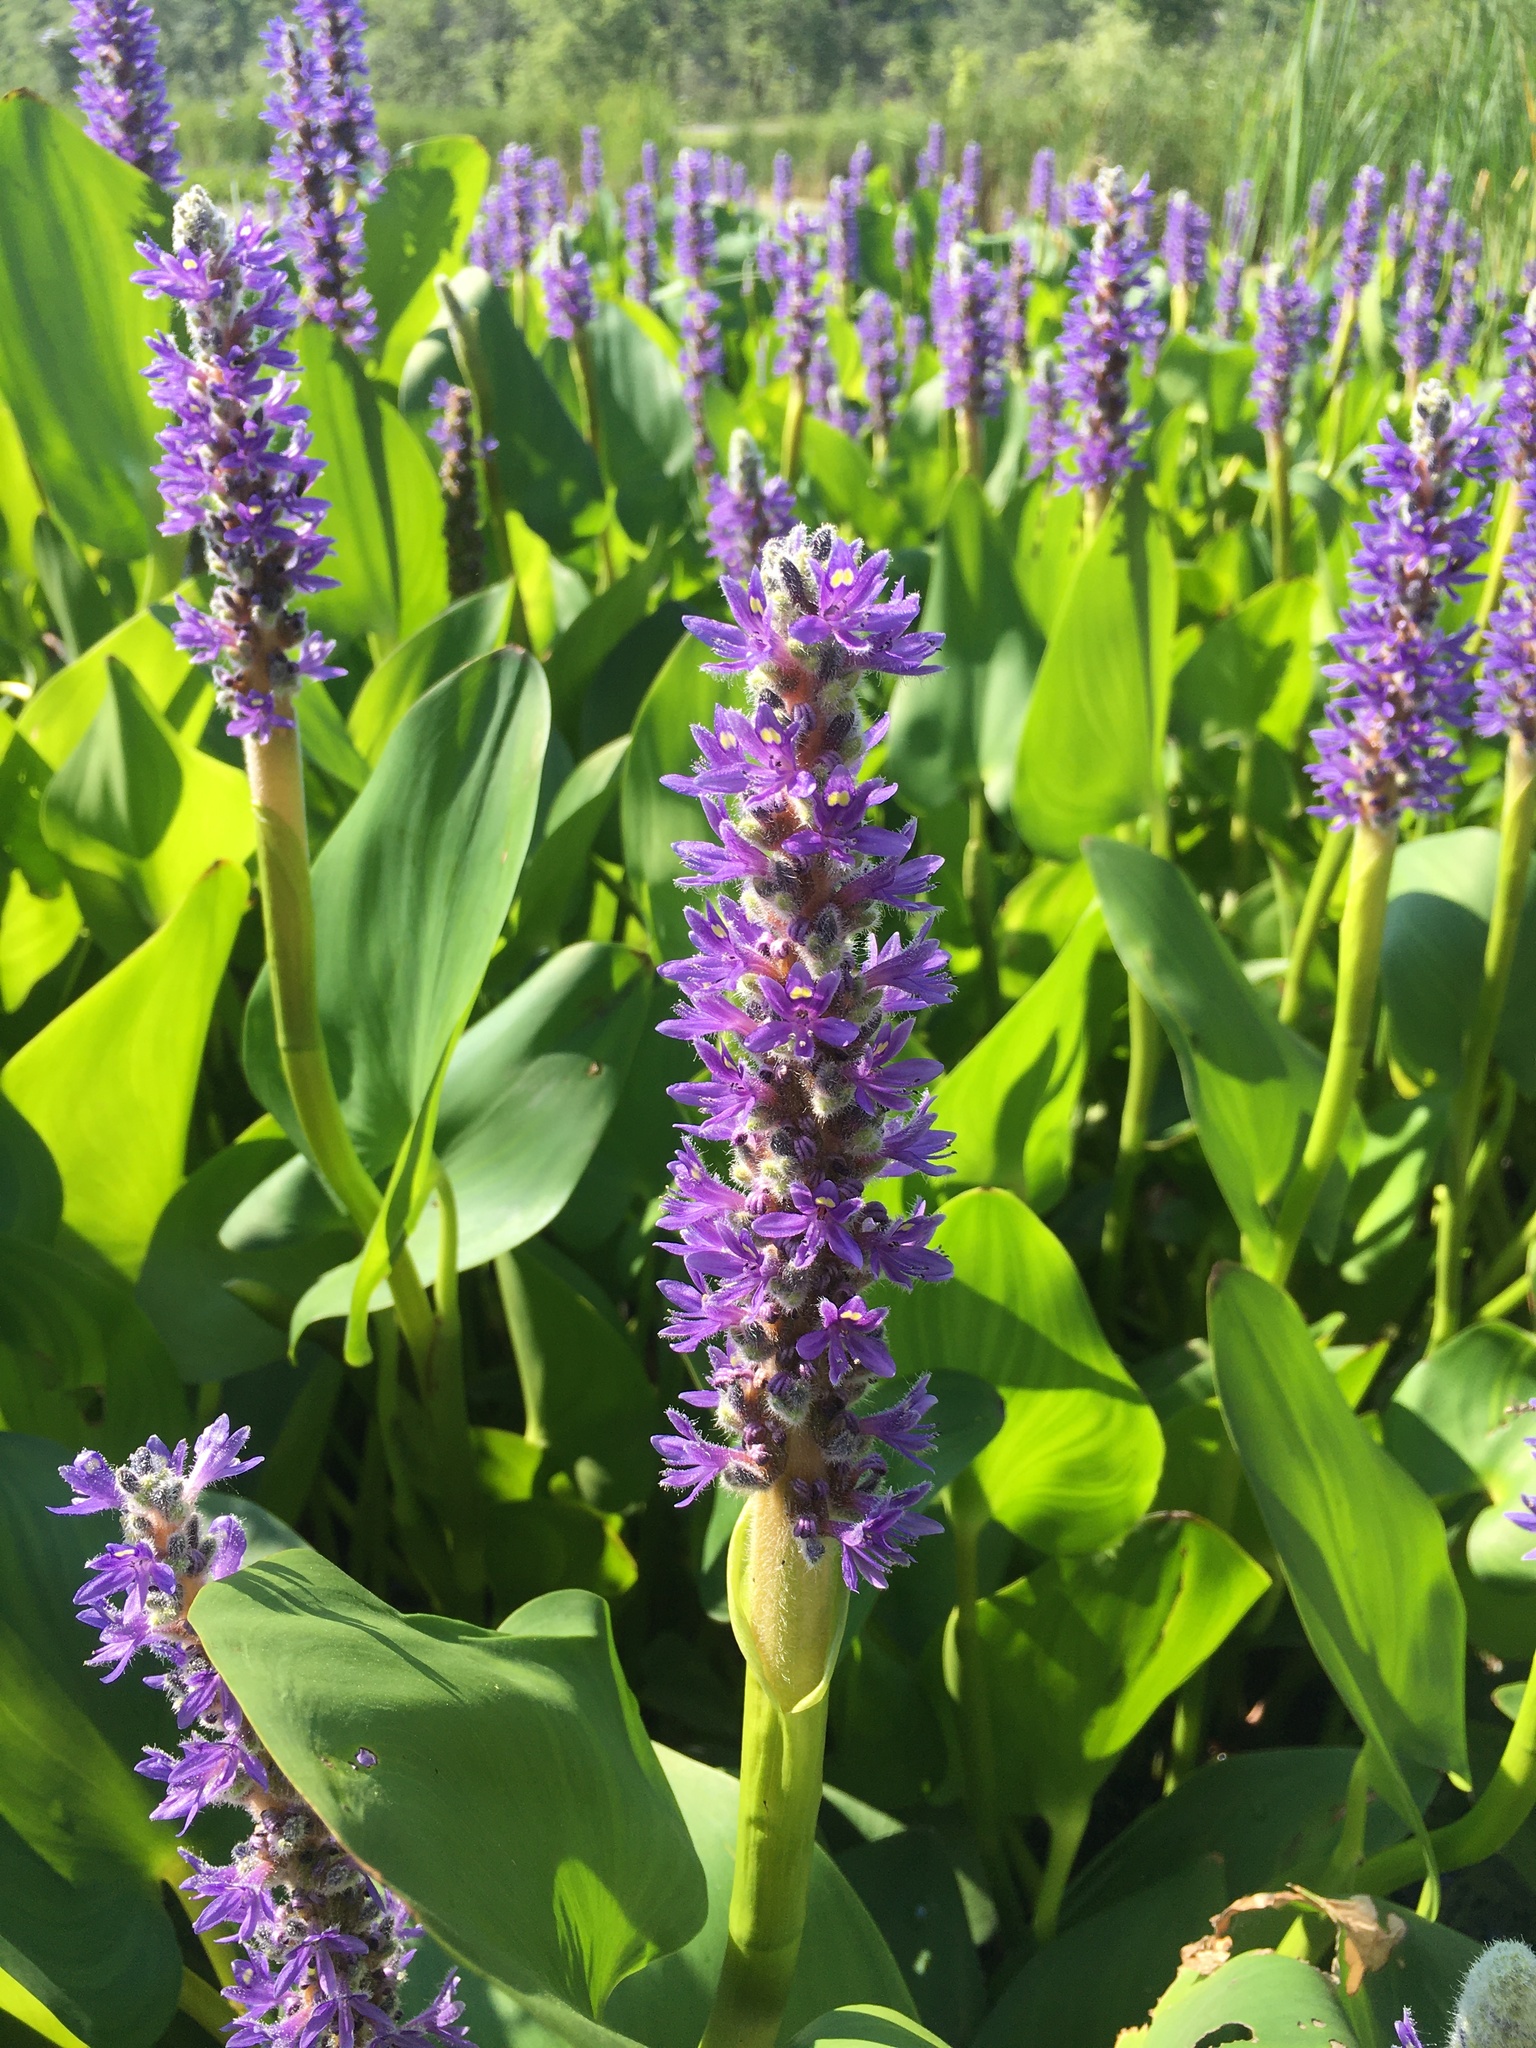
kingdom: Plantae
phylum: Tracheophyta
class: Liliopsida
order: Commelinales
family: Pontederiaceae
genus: Pontederia
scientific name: Pontederia cordata
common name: Pickerelweed
